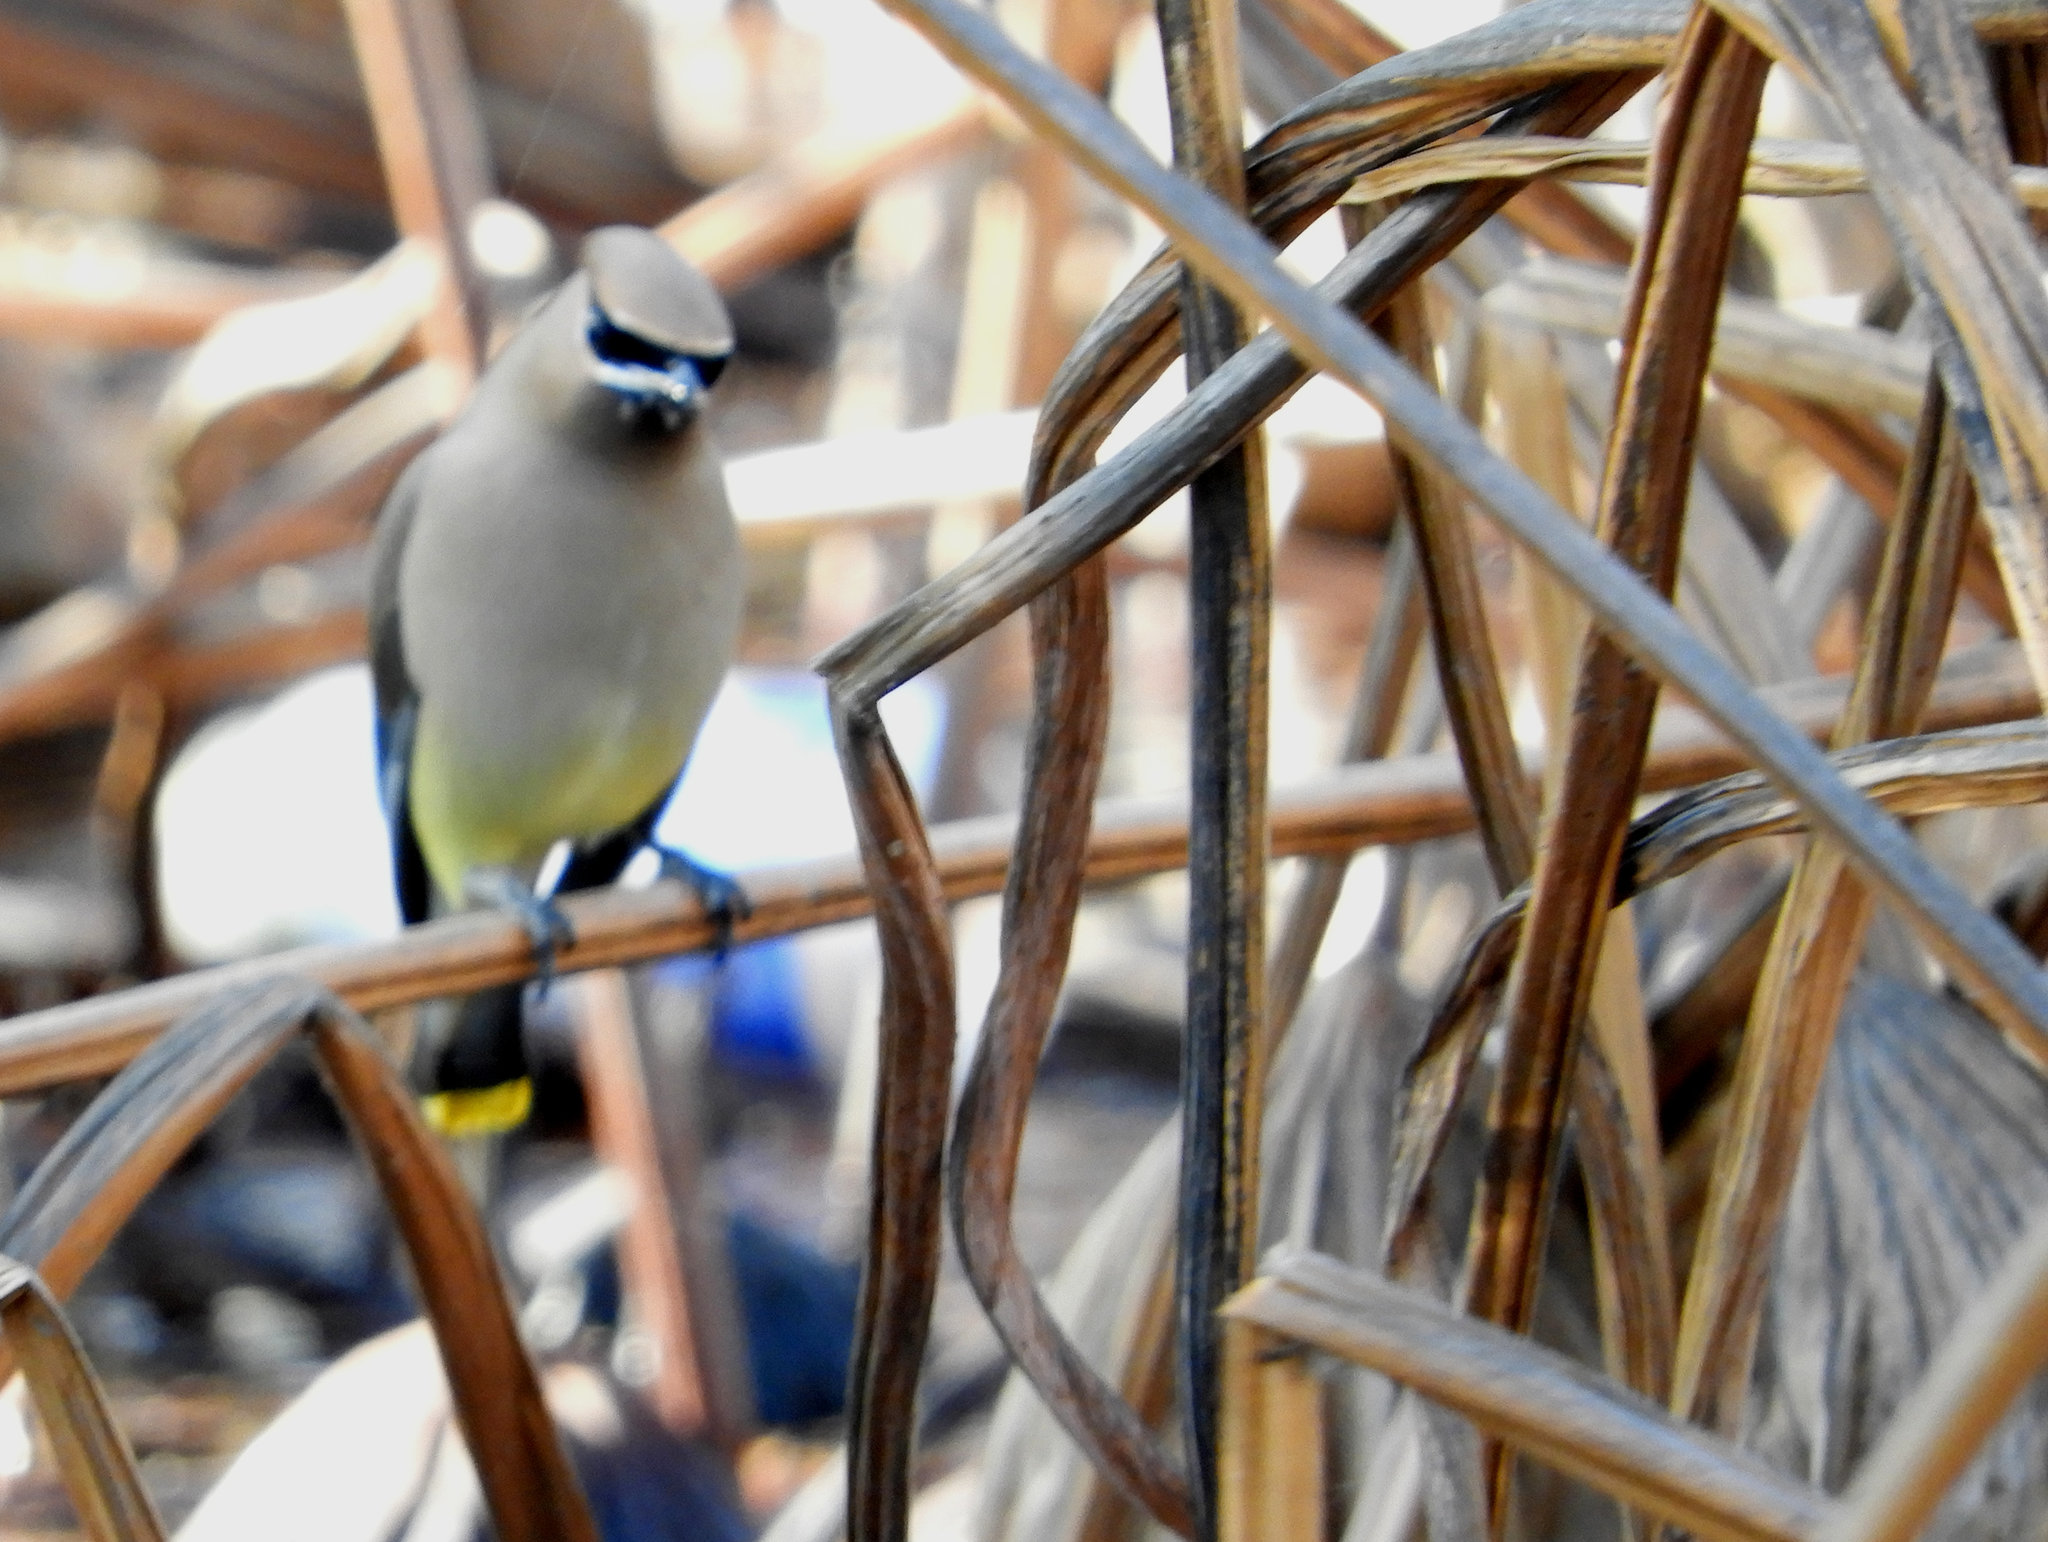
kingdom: Animalia
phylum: Chordata
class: Aves
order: Passeriformes
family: Bombycillidae
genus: Bombycilla
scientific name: Bombycilla cedrorum
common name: Cedar waxwing
